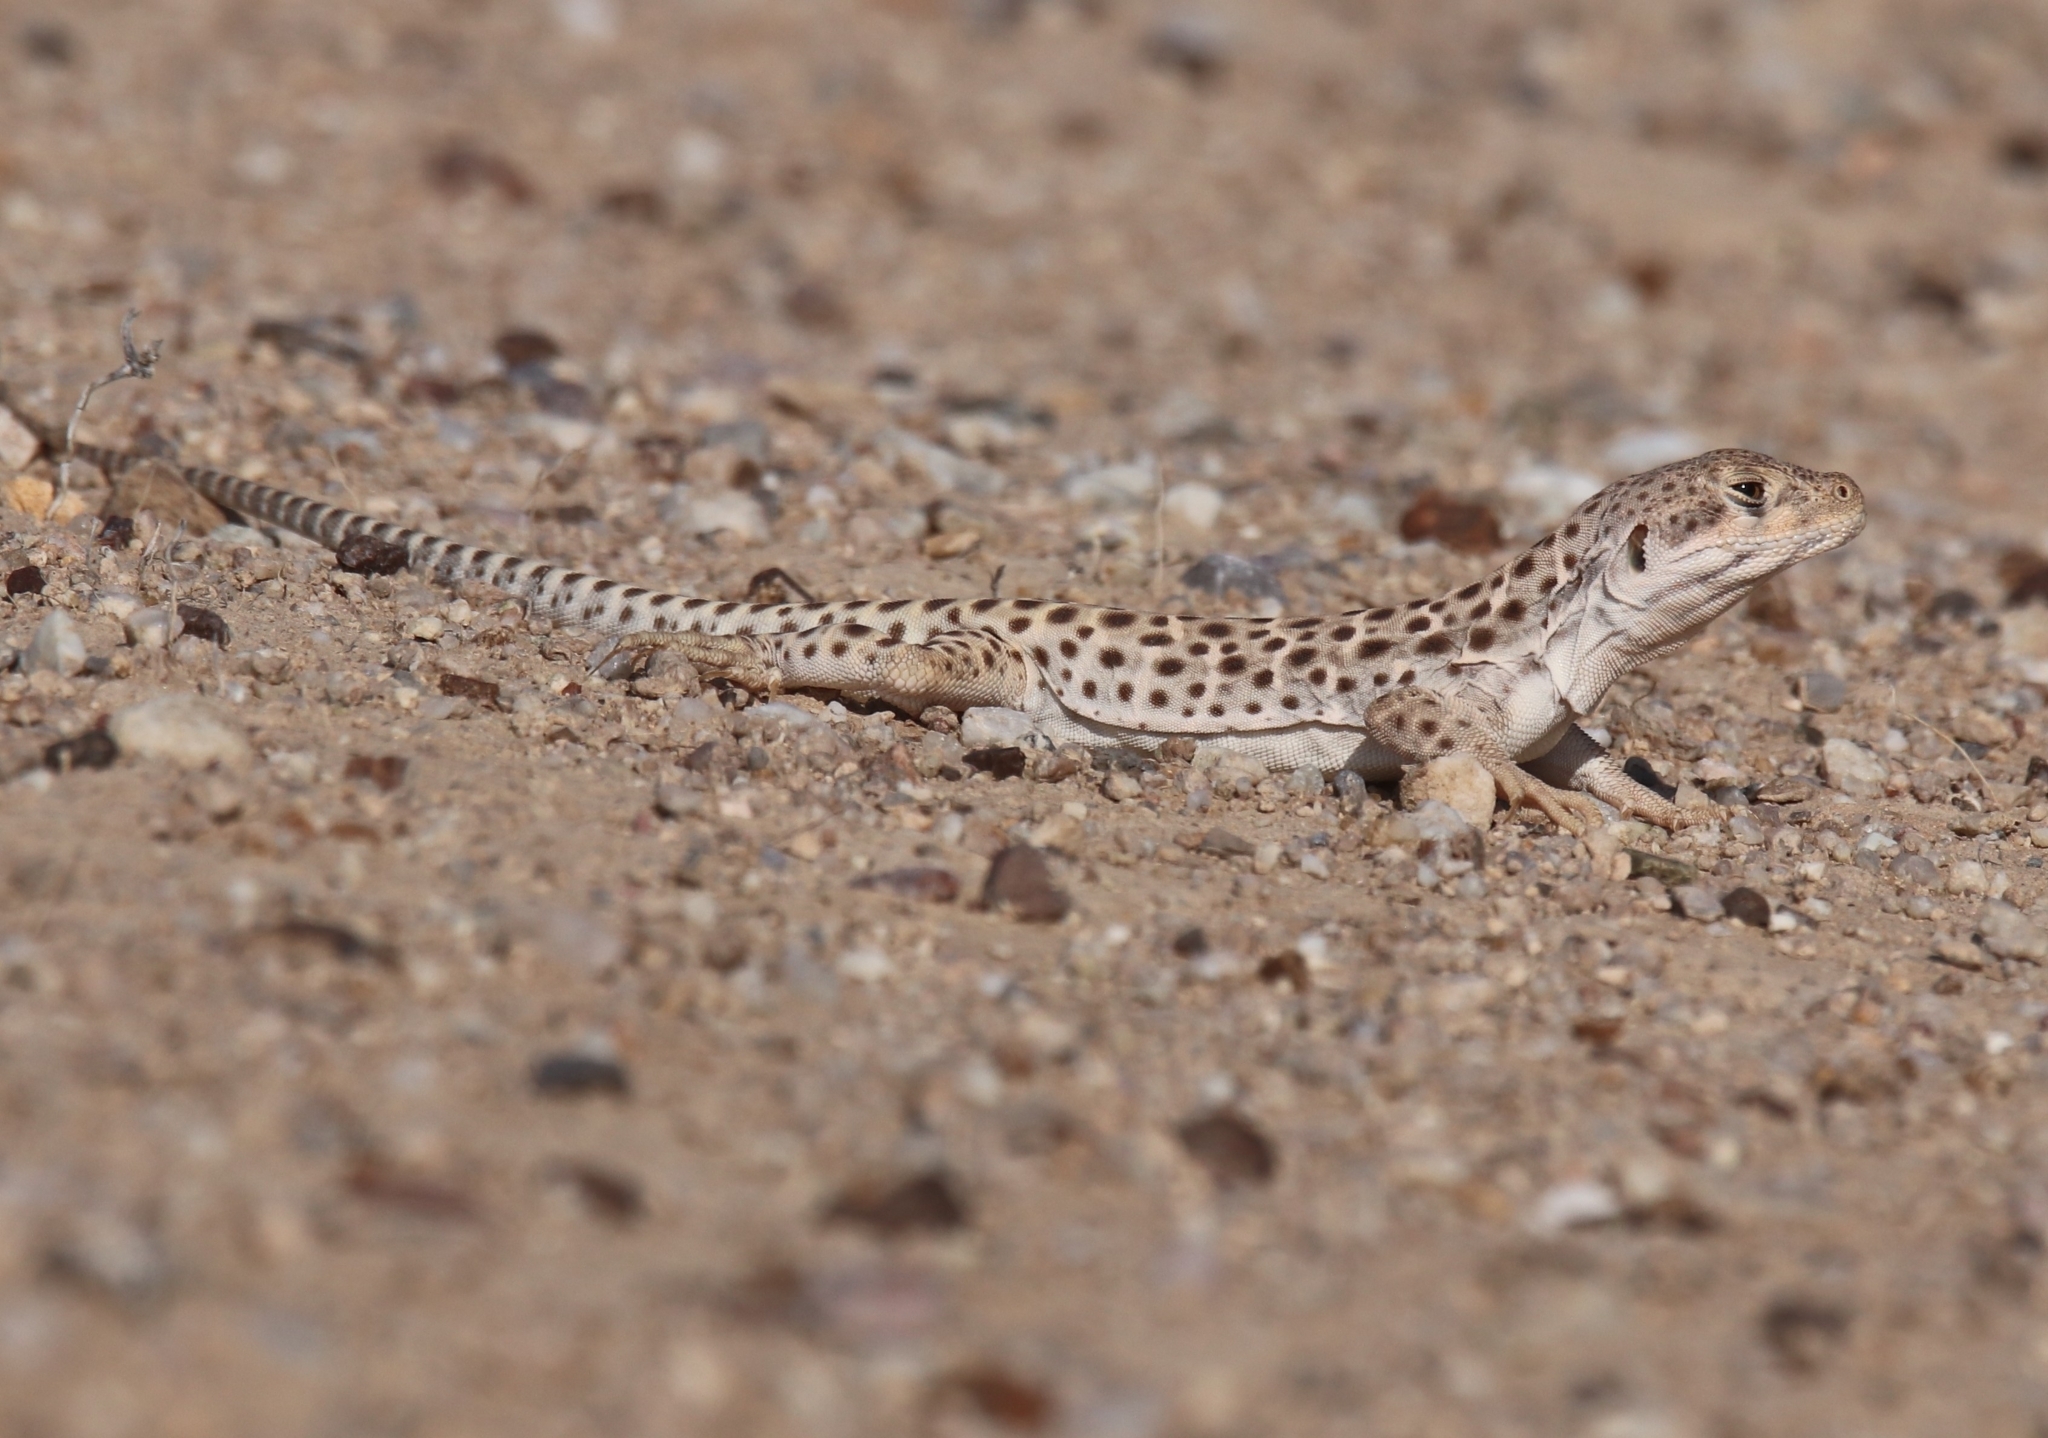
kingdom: Animalia
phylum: Chordata
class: Squamata
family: Crotaphytidae
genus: Gambelia
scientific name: Gambelia wislizenii
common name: Longnose leopard lizard
